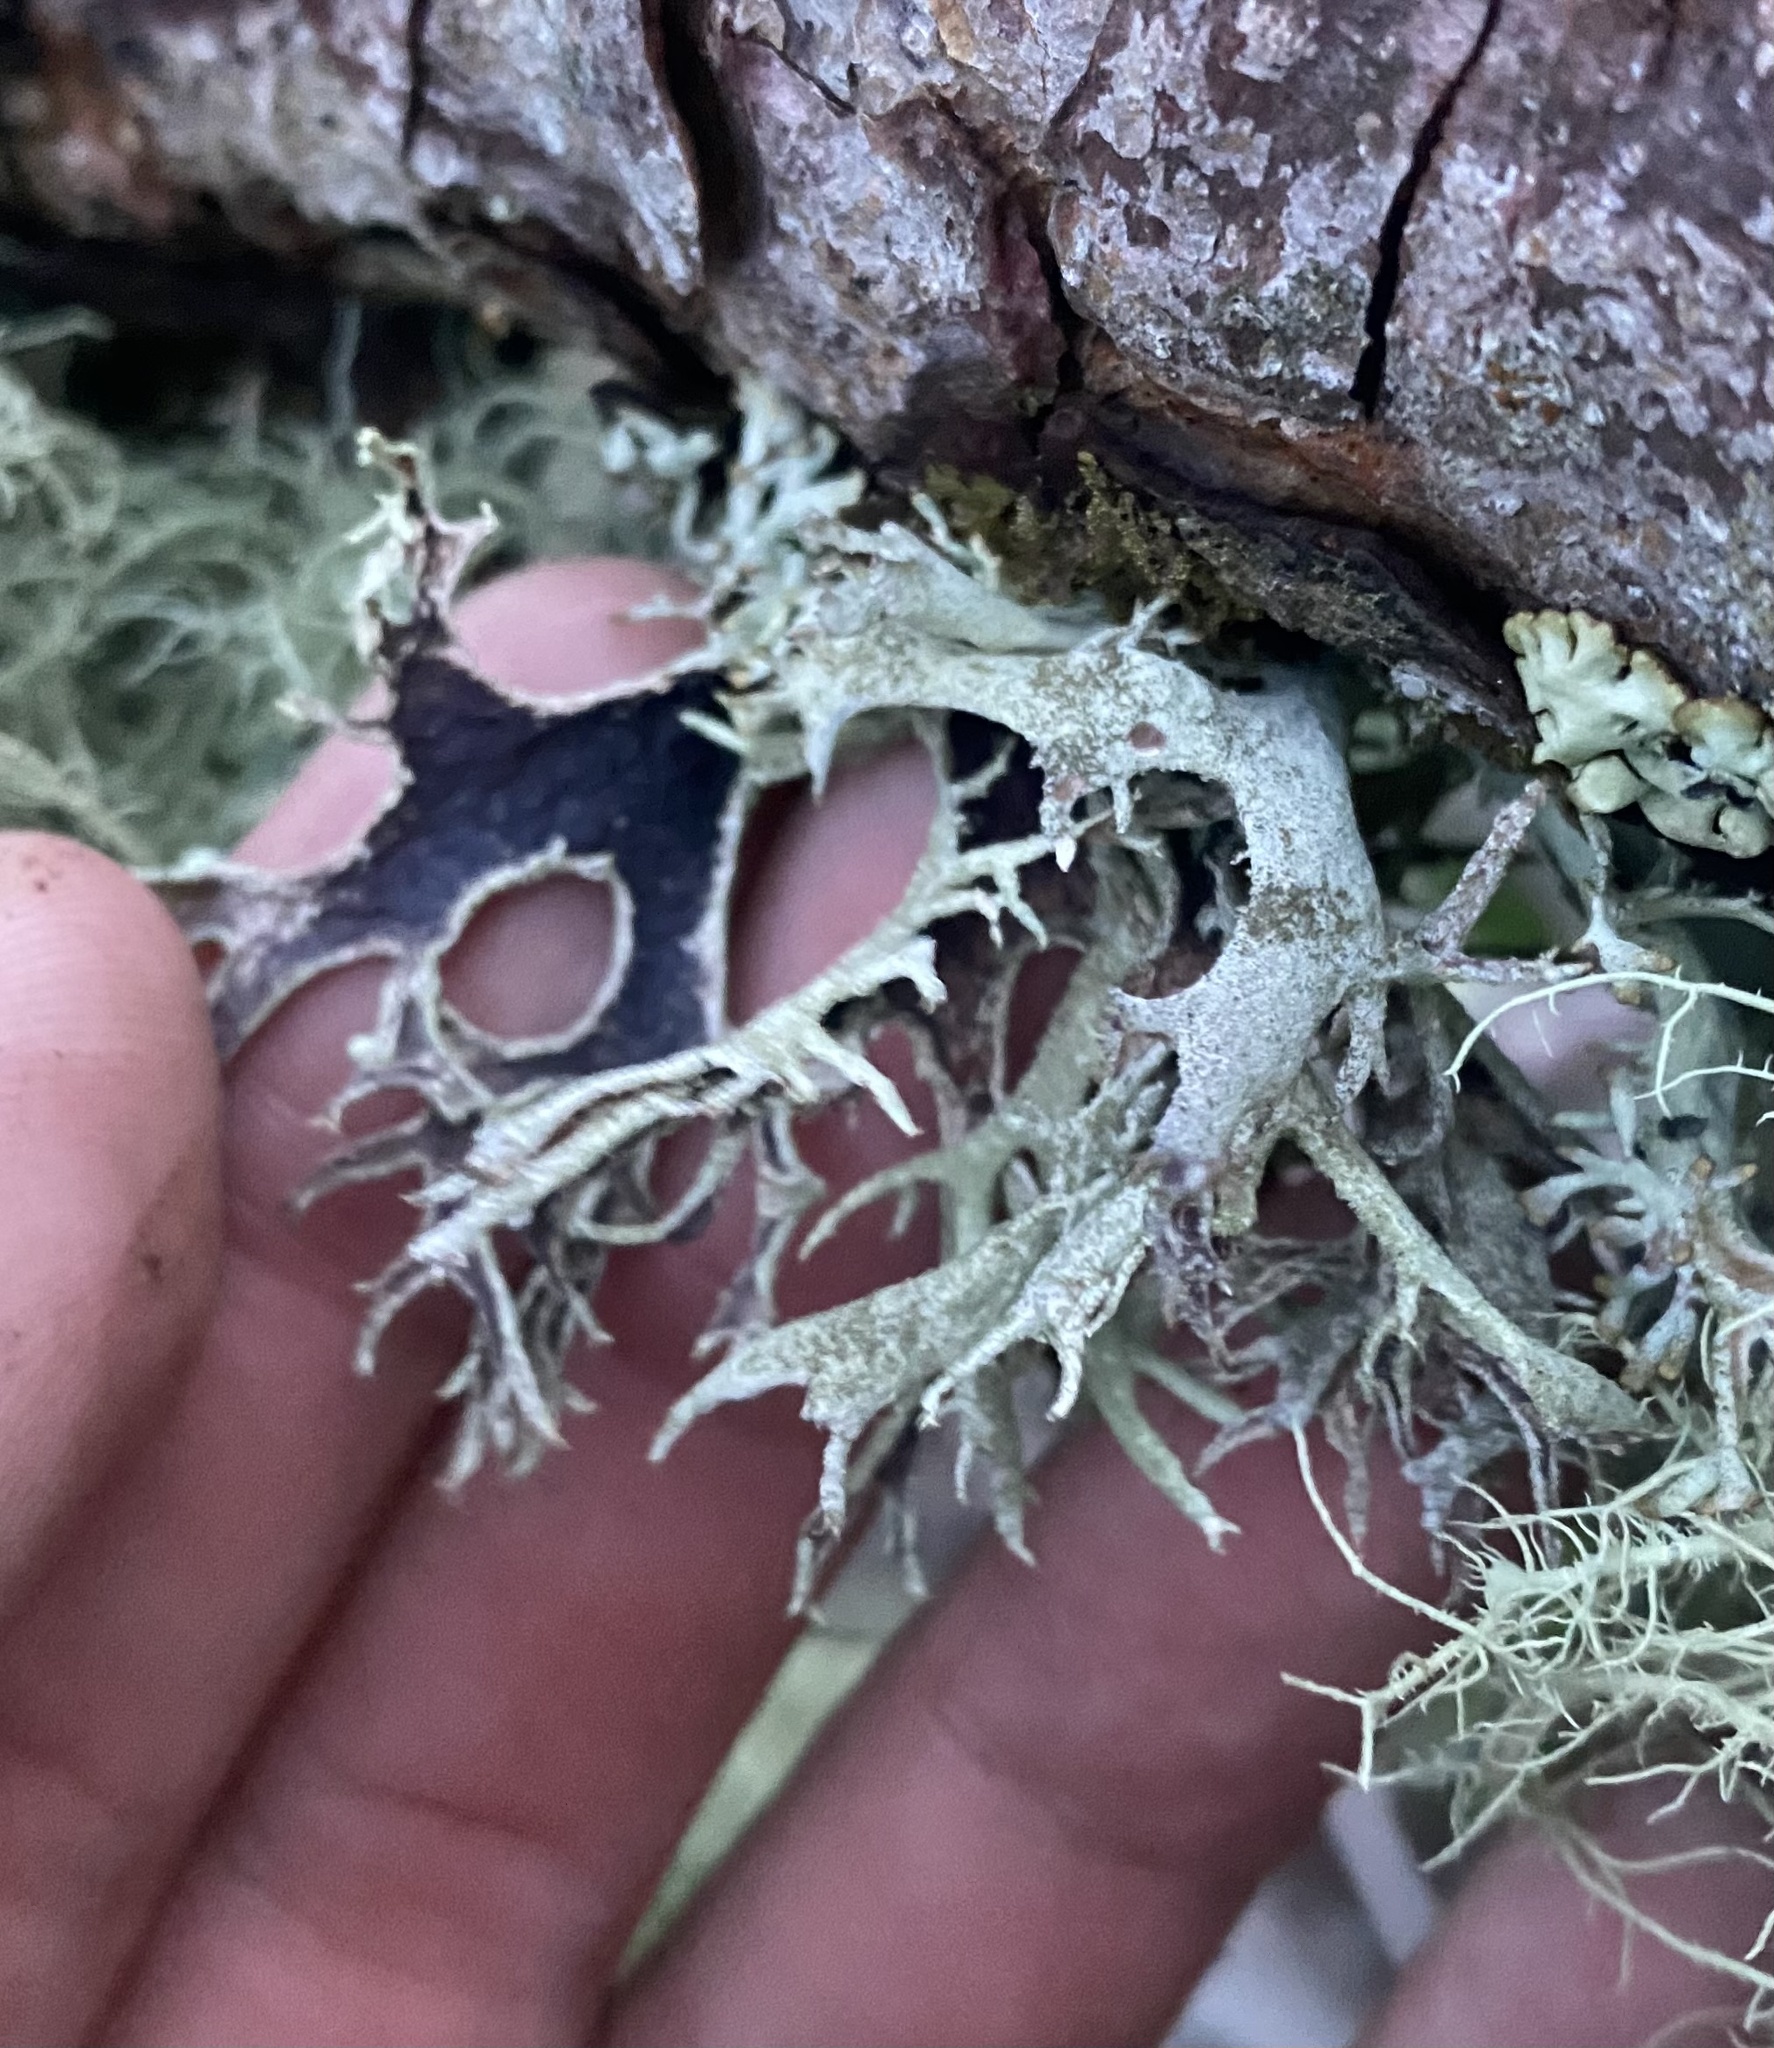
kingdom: Fungi
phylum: Ascomycota
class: Lecanoromycetes
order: Lecanorales
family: Parmeliaceae
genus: Pseudevernia
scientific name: Pseudevernia furfuracea
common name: Tree moss
